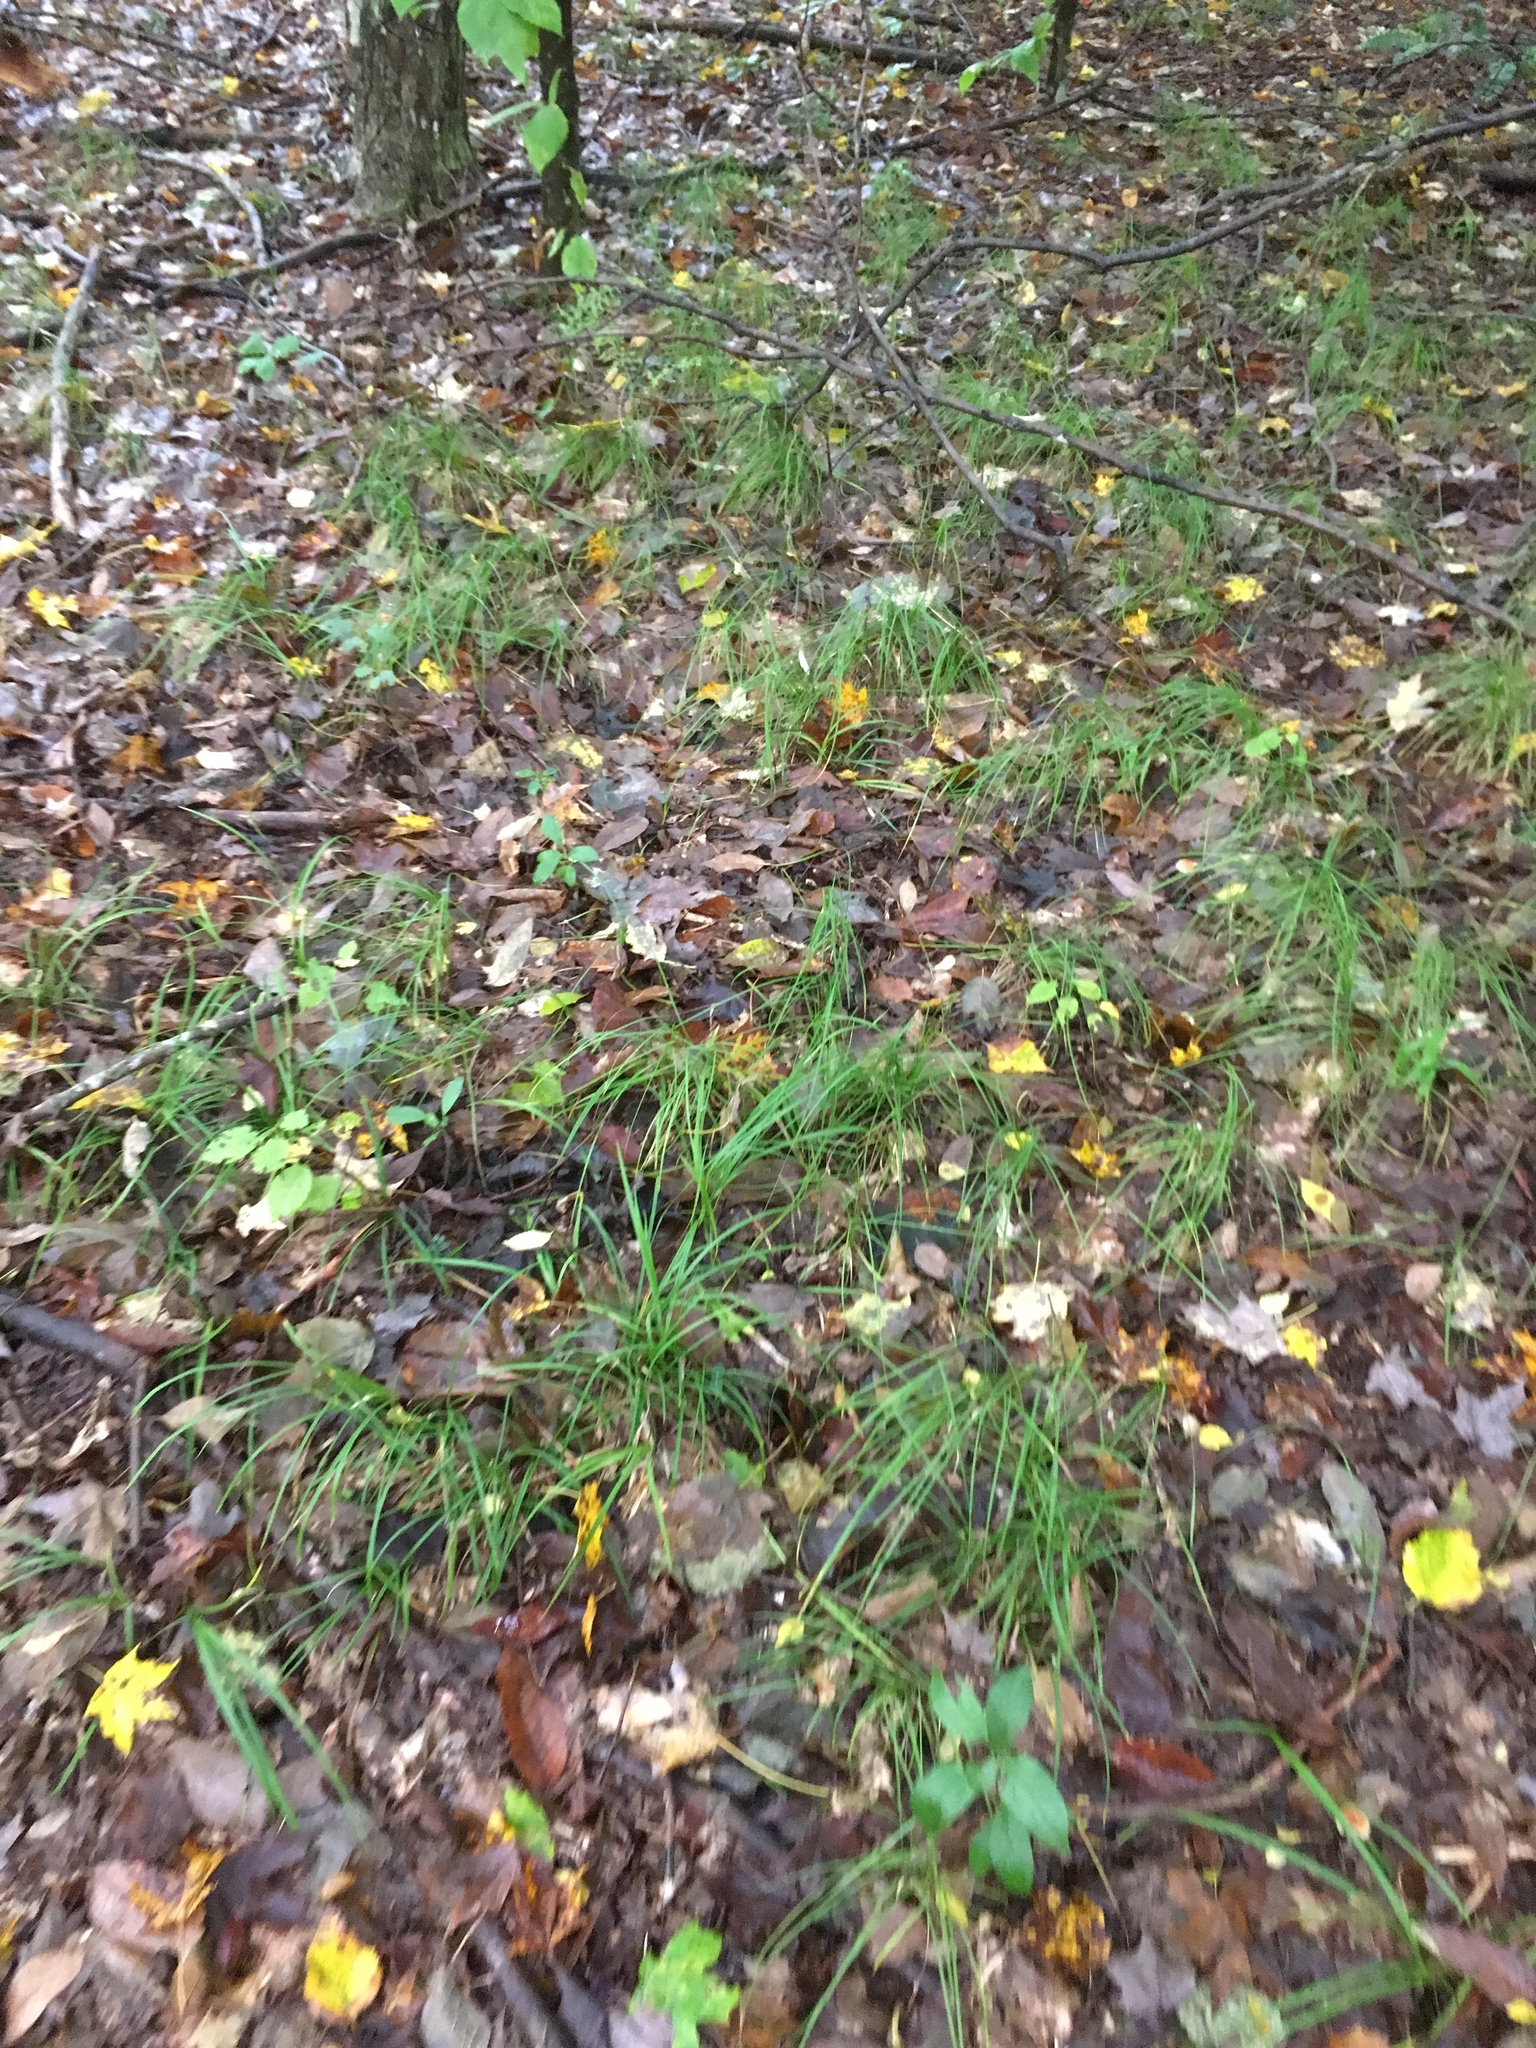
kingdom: Plantae
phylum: Tracheophyta
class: Liliopsida
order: Poales
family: Cyperaceae
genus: Carex
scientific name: Carex pensylvanica
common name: Common oak sedge
